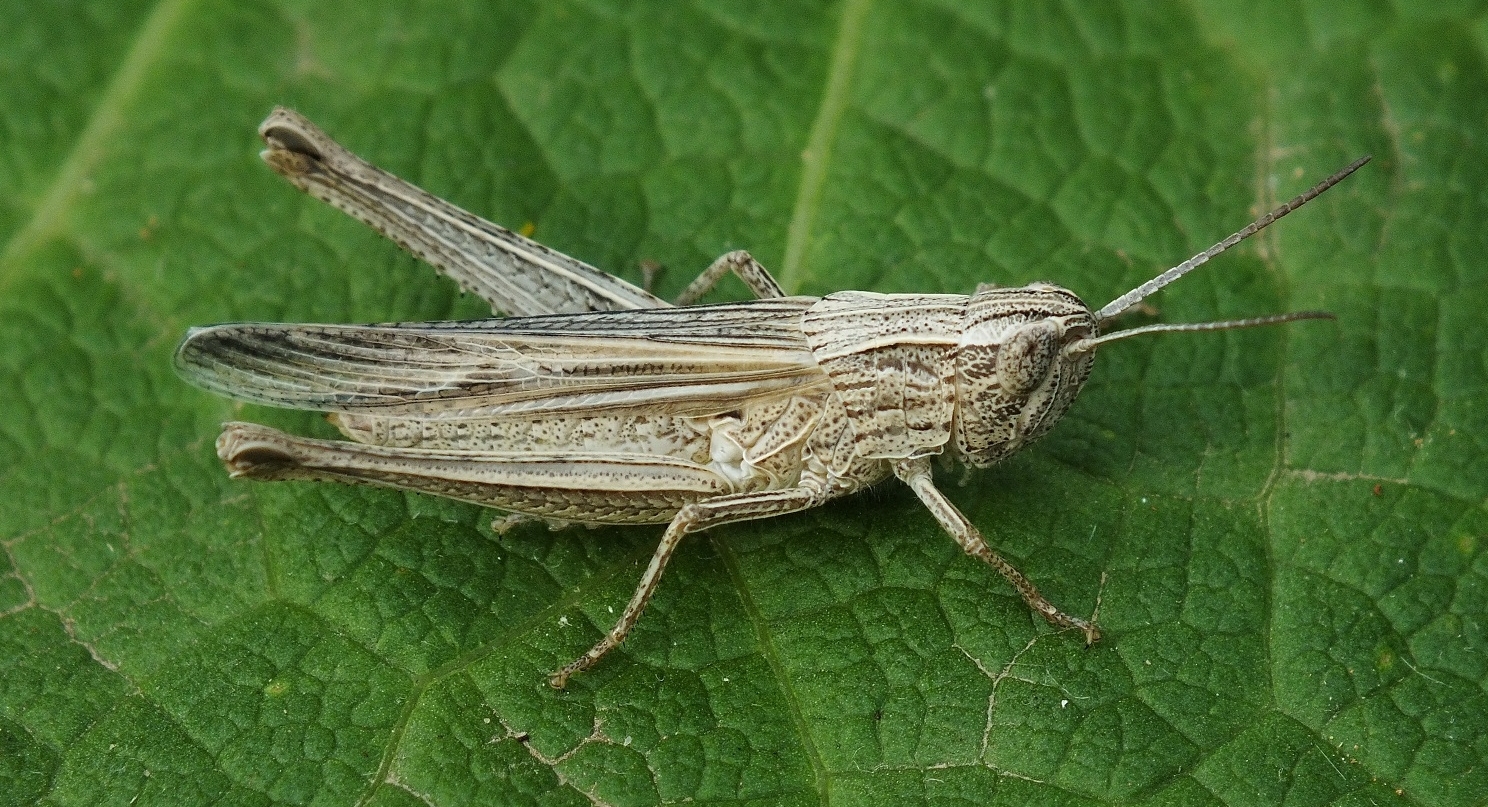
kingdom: Animalia
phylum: Arthropoda
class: Insecta
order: Orthoptera
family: Acrididae
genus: Chorthippus
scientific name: Chorthippus dichrous
